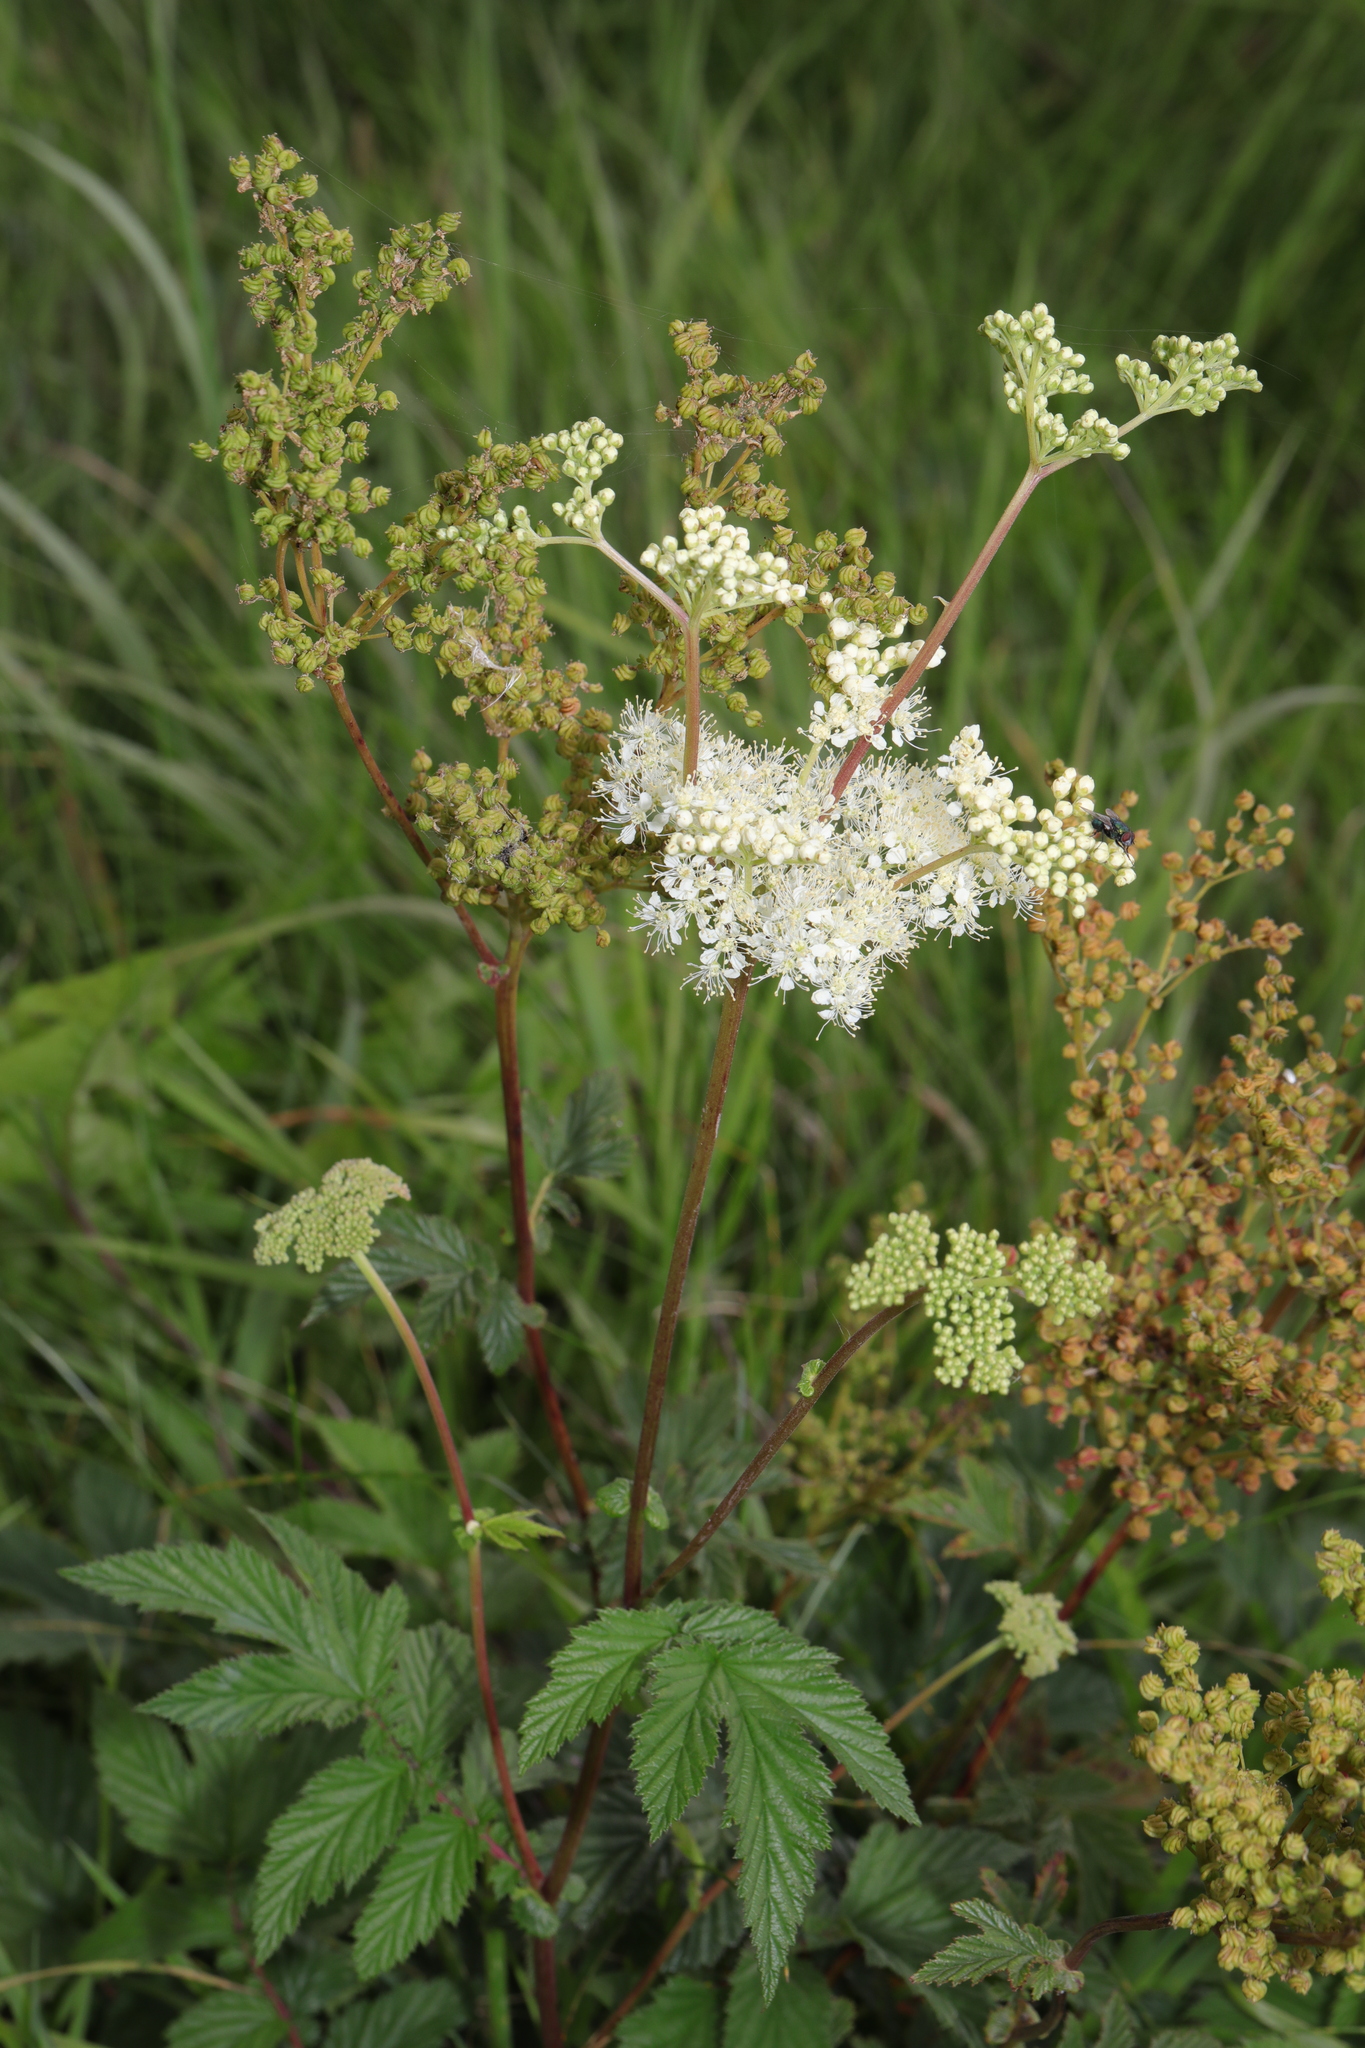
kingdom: Plantae
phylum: Tracheophyta
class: Magnoliopsida
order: Rosales
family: Rosaceae
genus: Filipendula
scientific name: Filipendula ulmaria
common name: Meadowsweet
